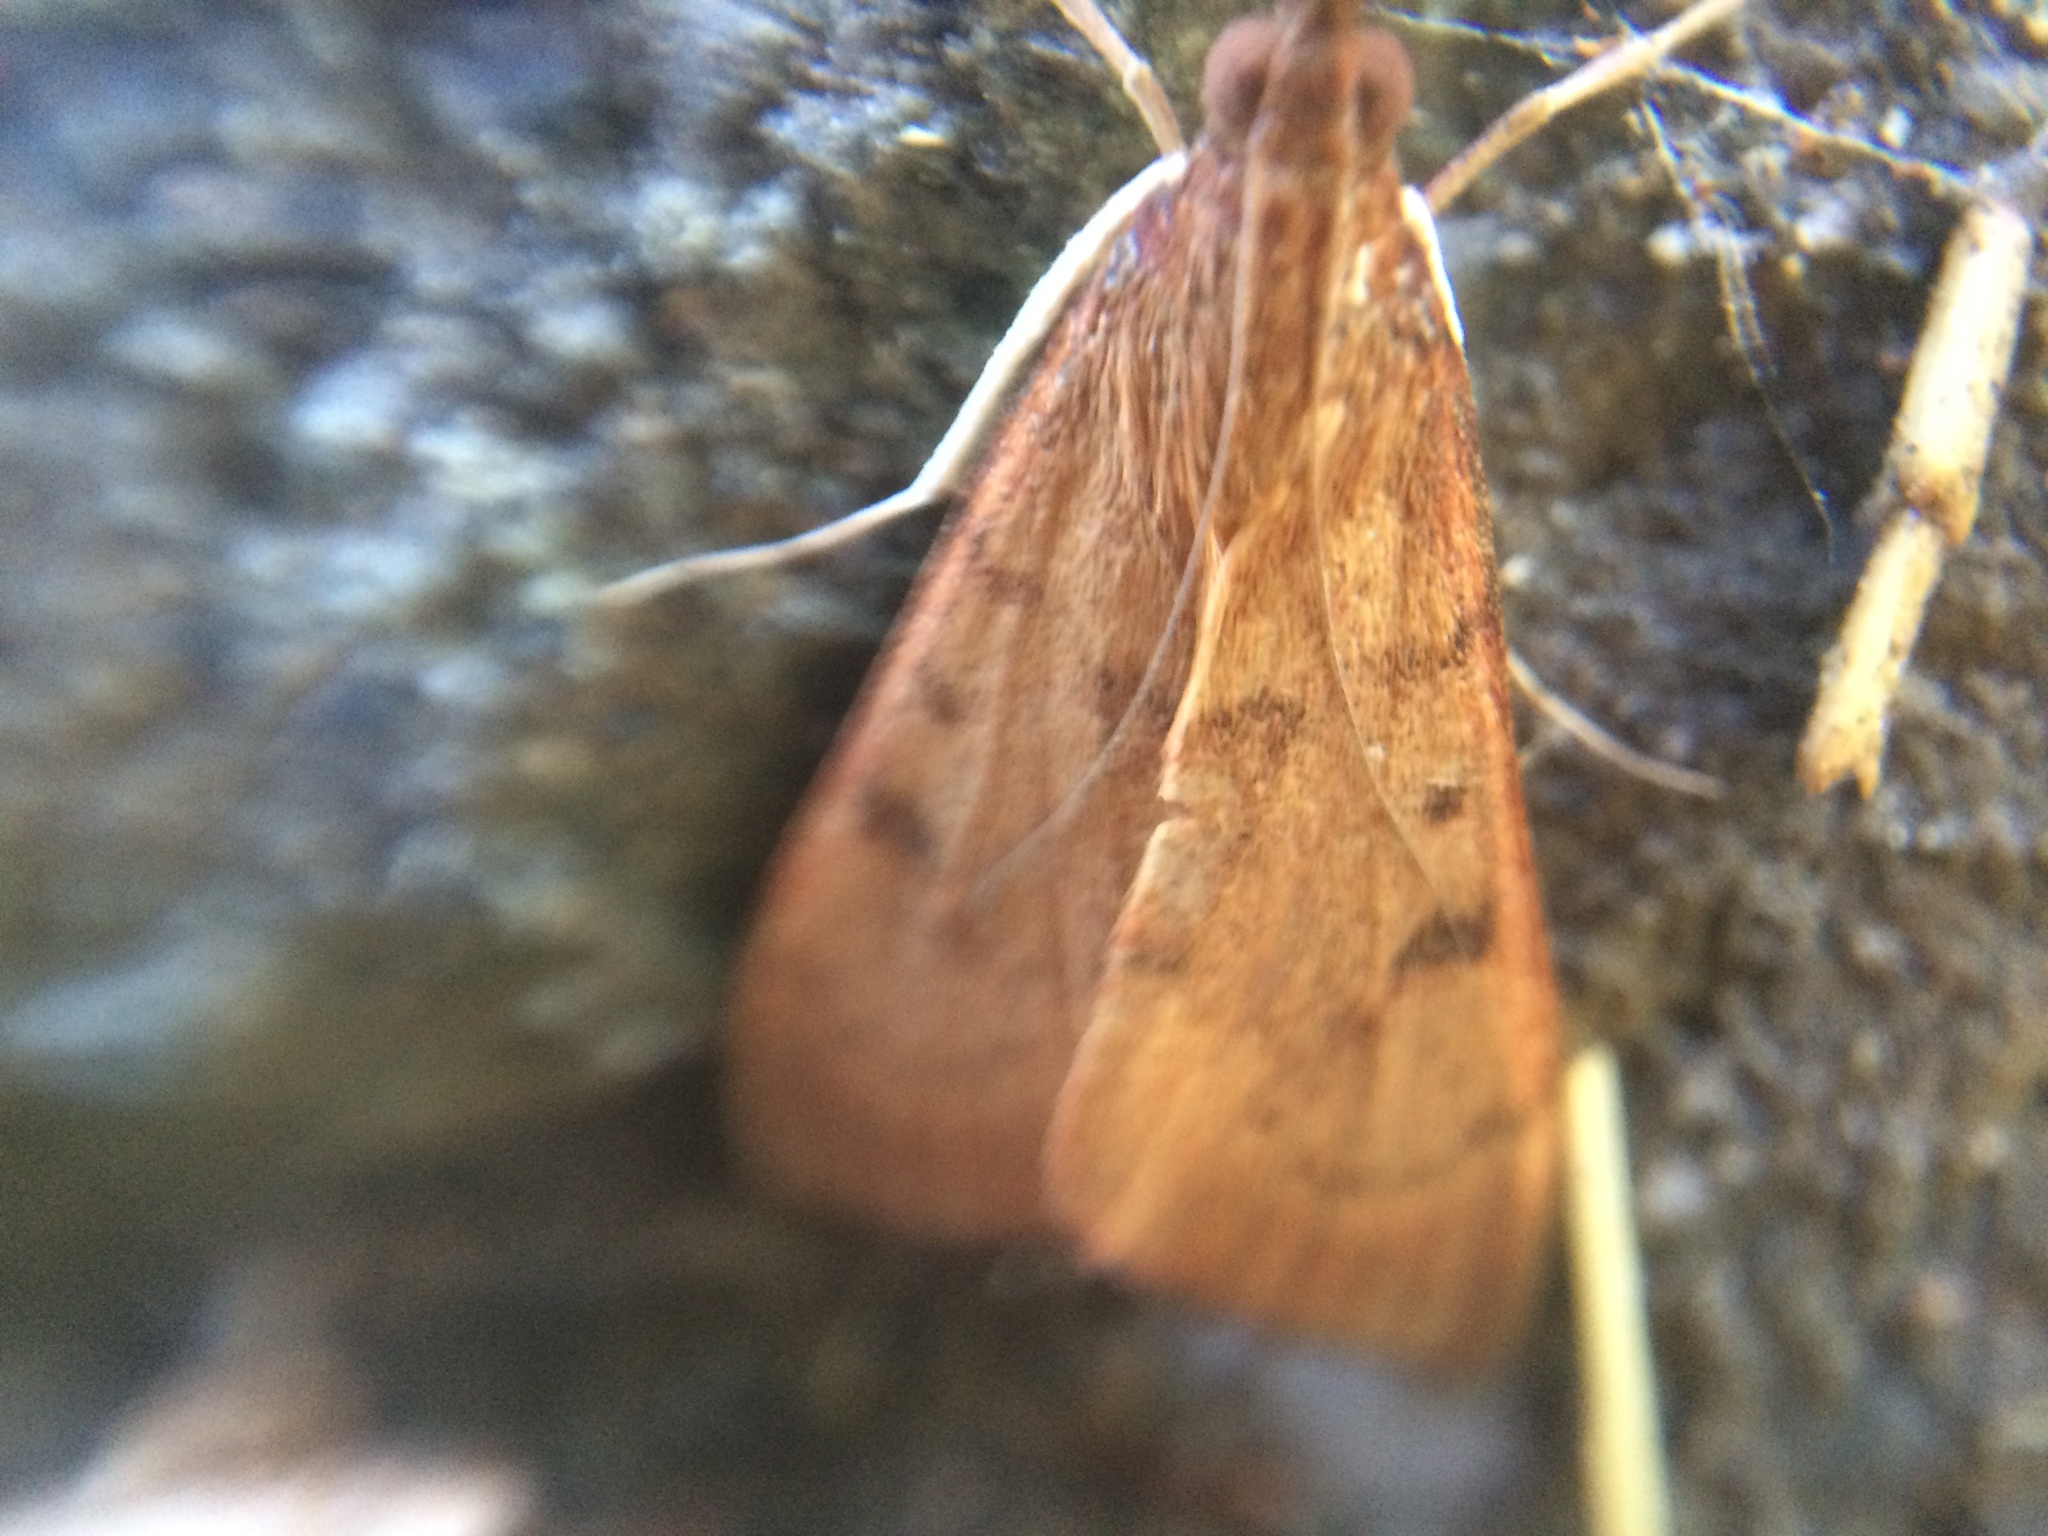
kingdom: Animalia
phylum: Arthropoda
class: Insecta
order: Lepidoptera
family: Crambidae
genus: Uresiphita
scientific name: Uresiphita reversalis
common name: Genista broom moth
